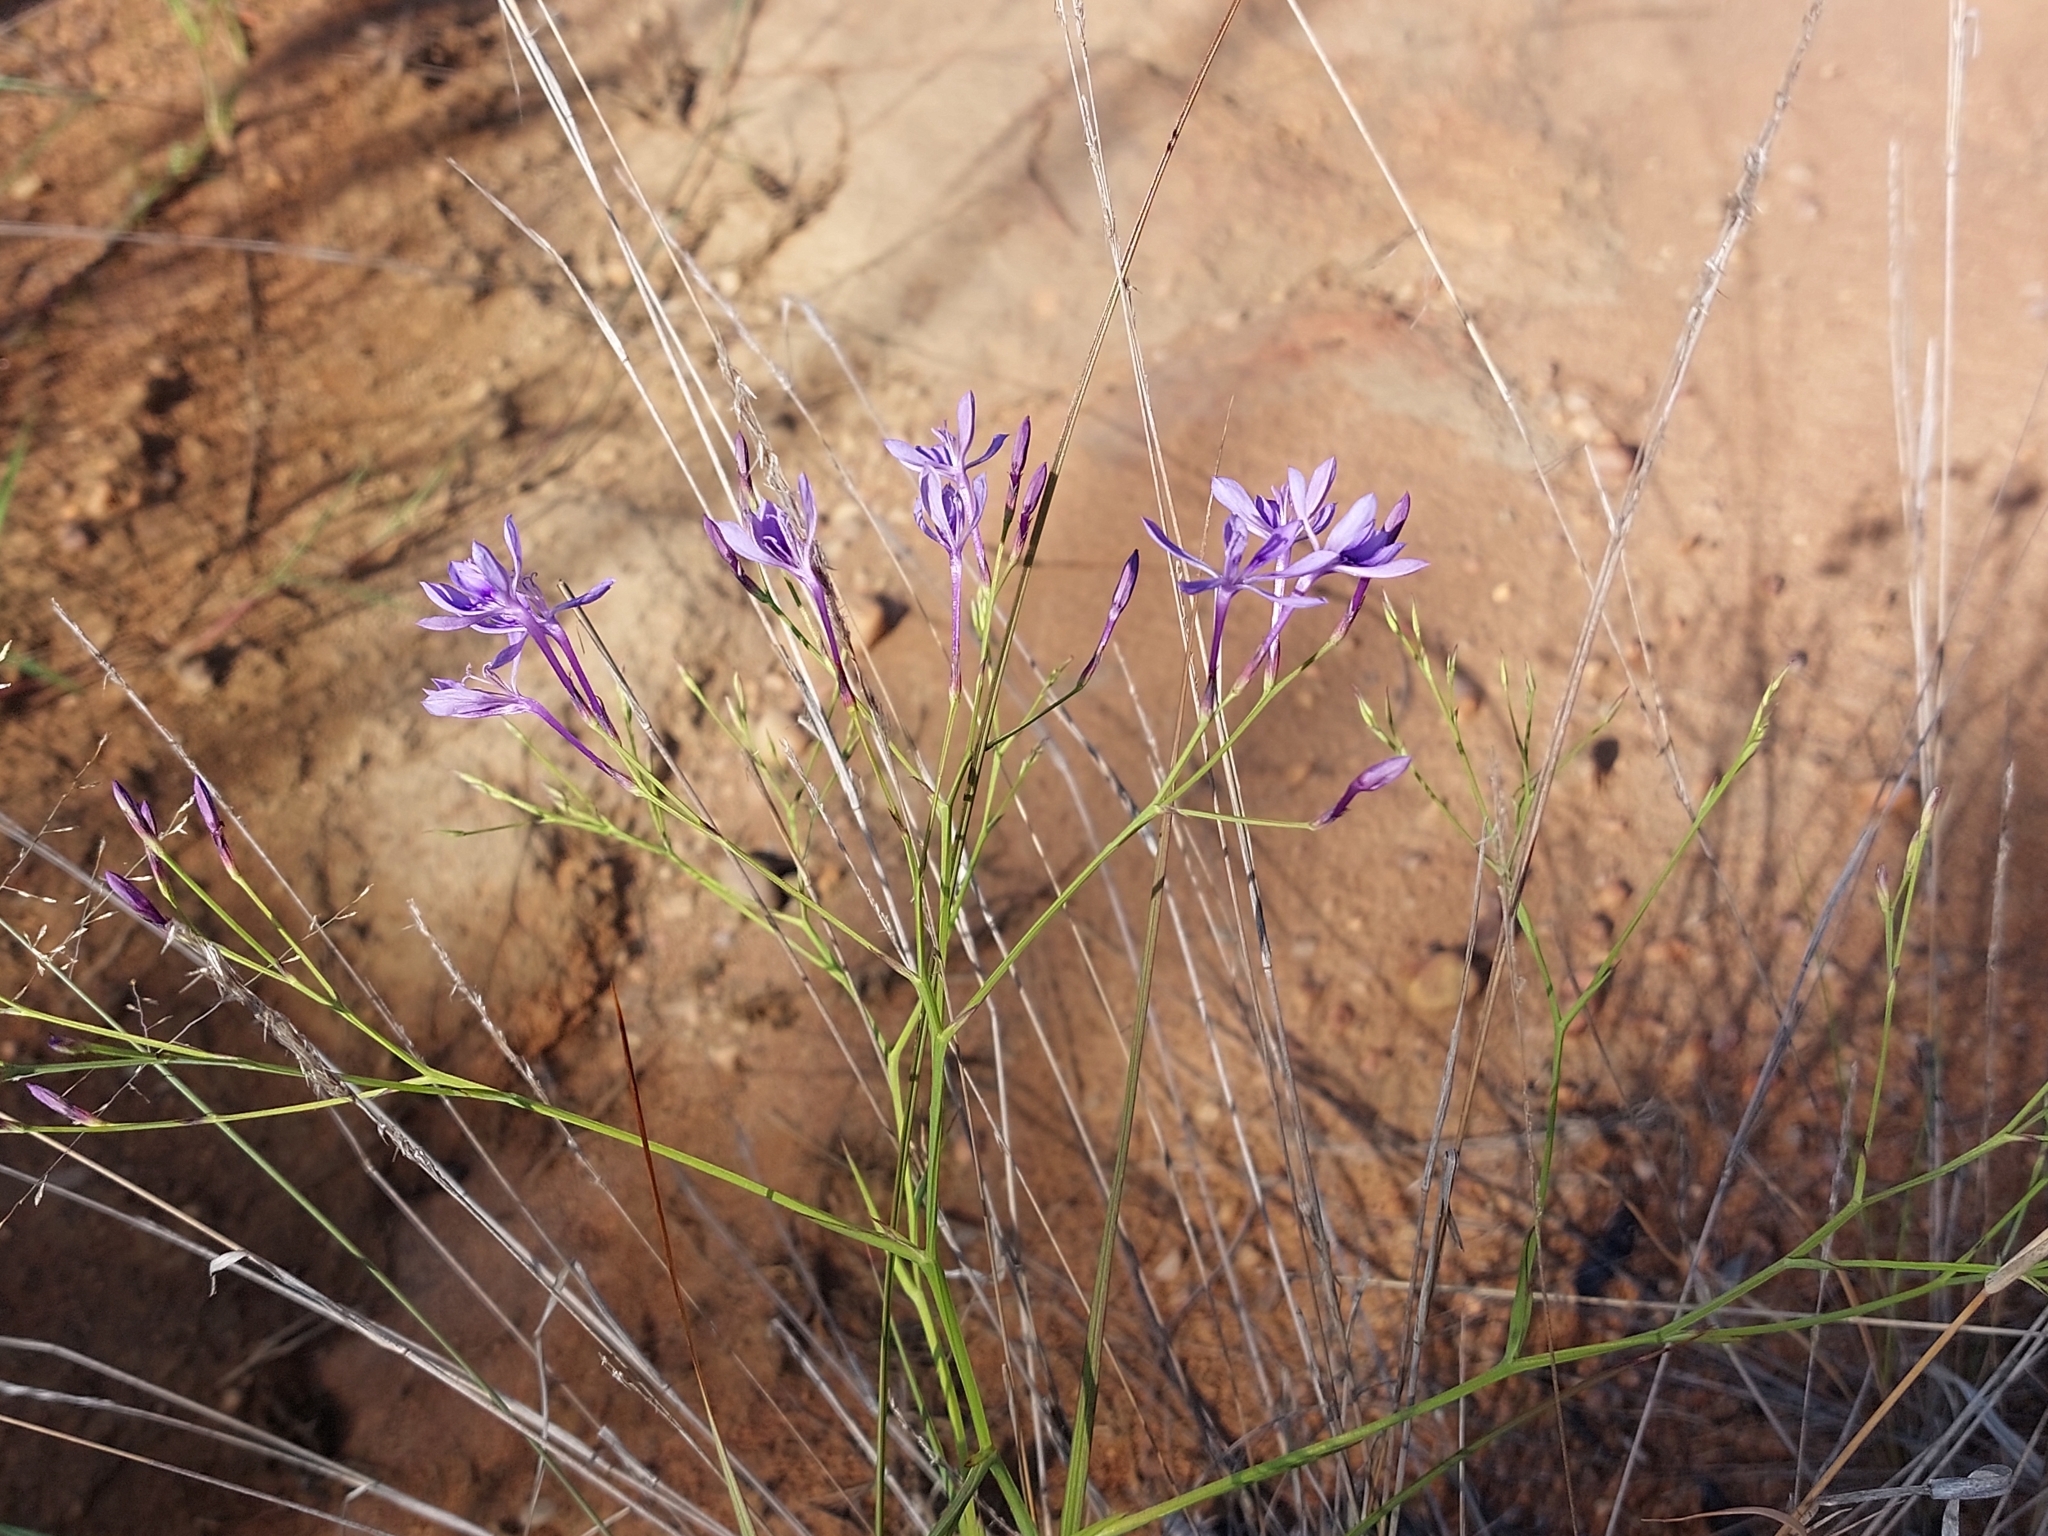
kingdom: Plantae
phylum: Tracheophyta
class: Liliopsida
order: Asparagales
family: Iridaceae
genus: Afrosolen
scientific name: Afrosolen sandersonii
